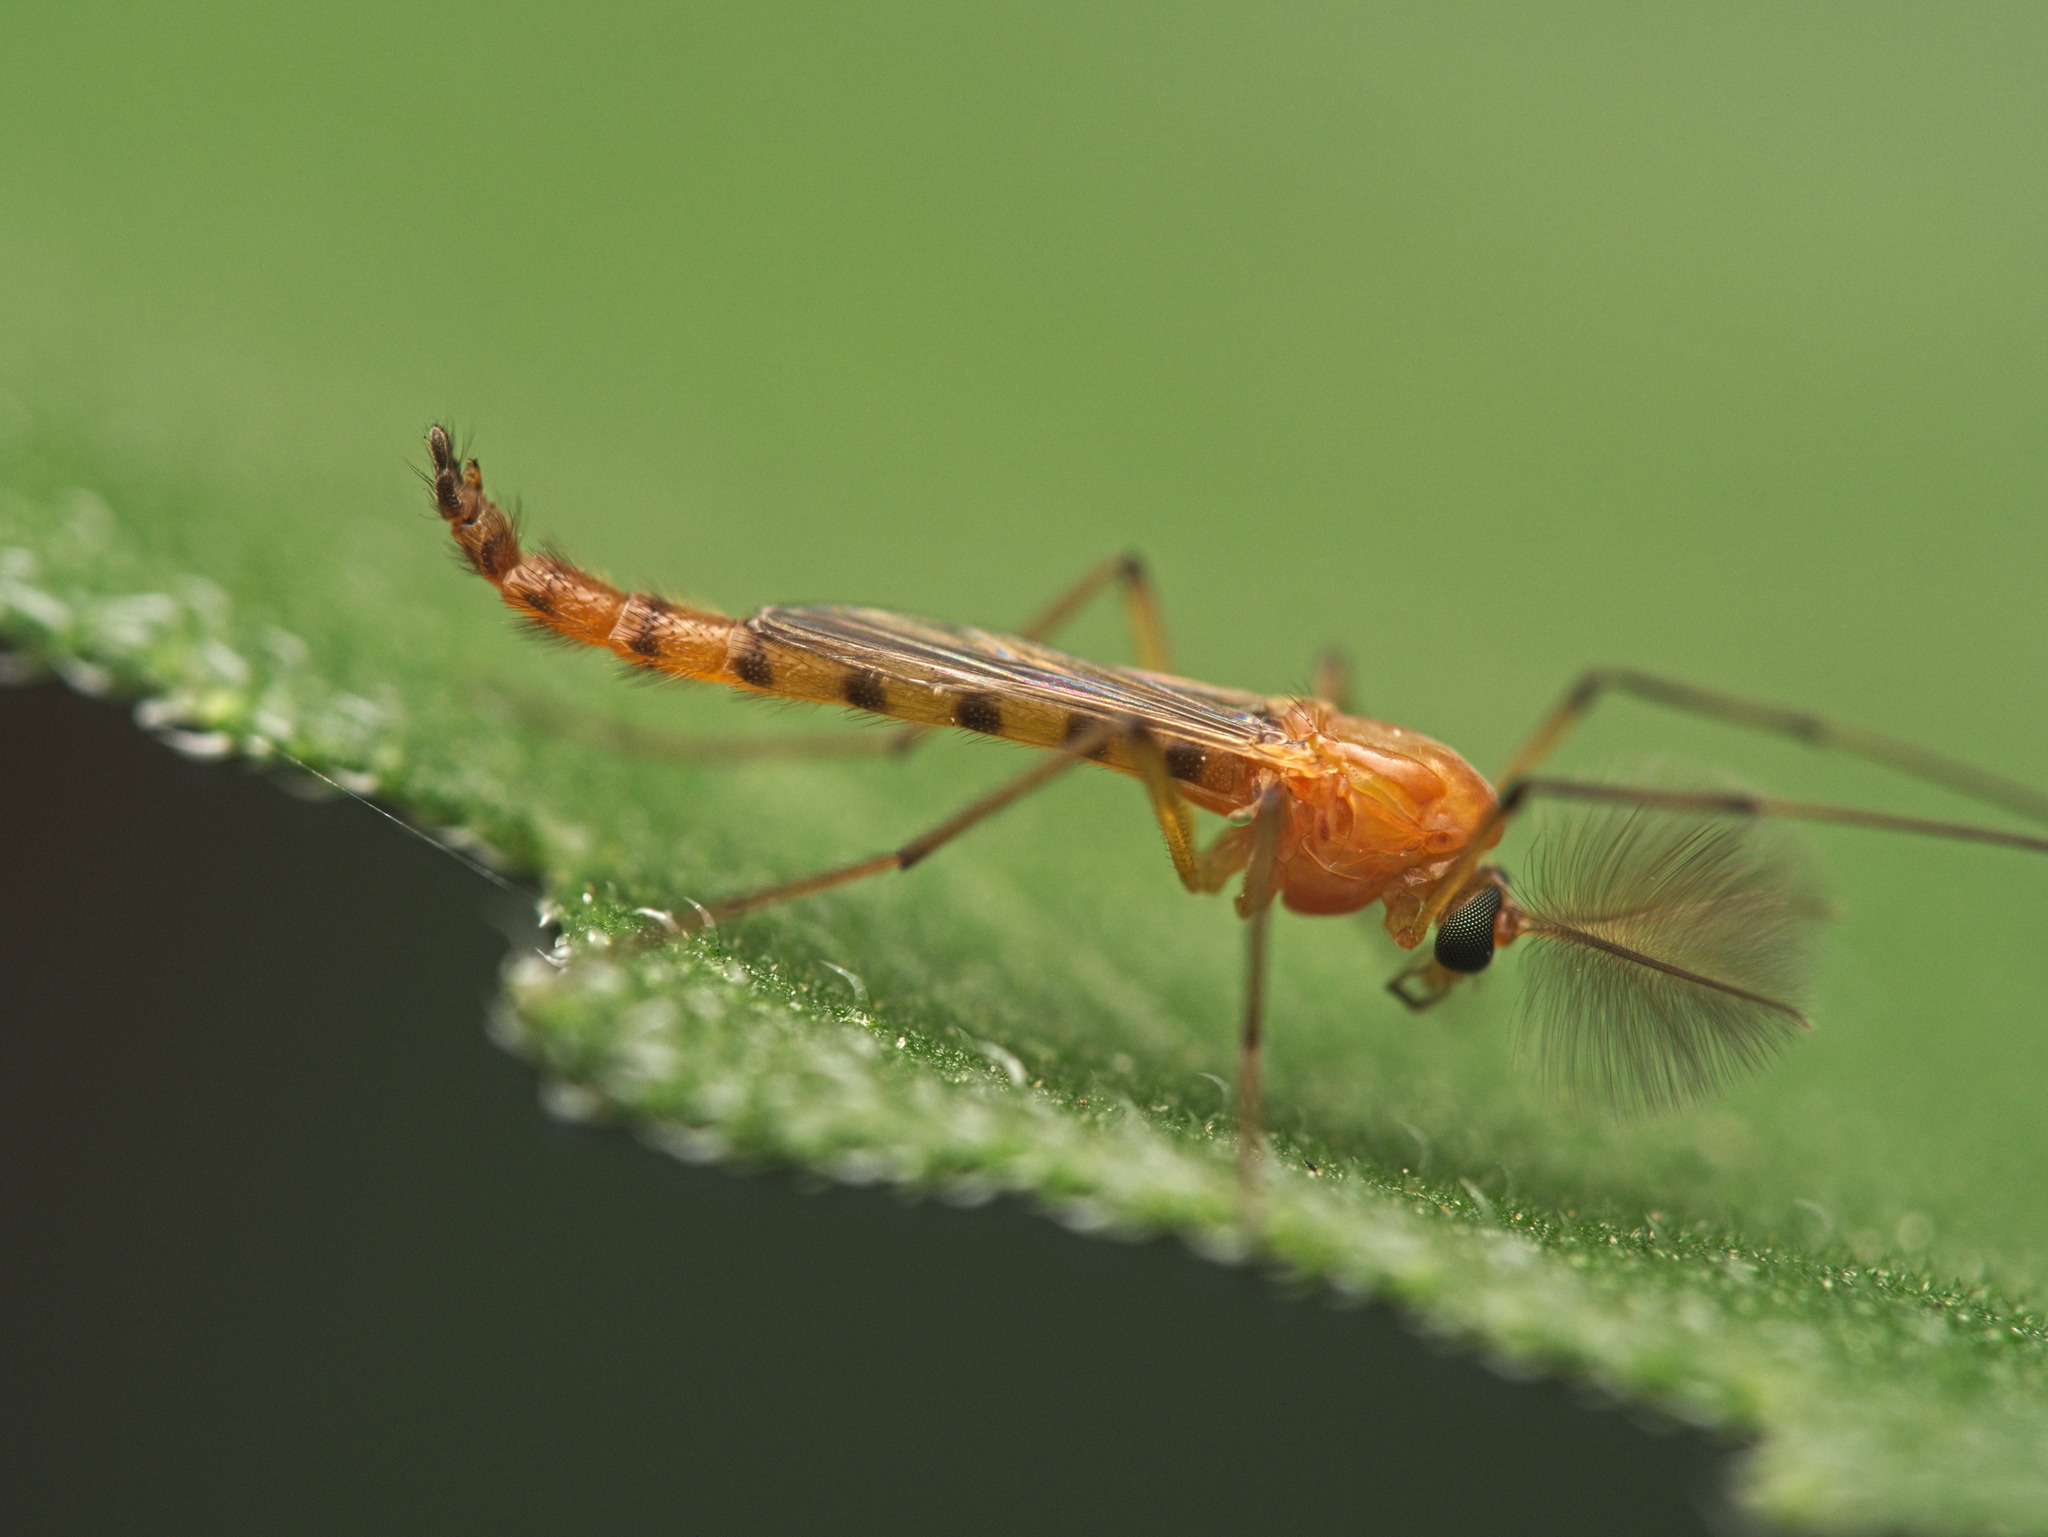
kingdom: Animalia
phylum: Arthropoda
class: Insecta
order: Diptera
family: Chironomidae
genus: Axarus
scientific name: Axarus
